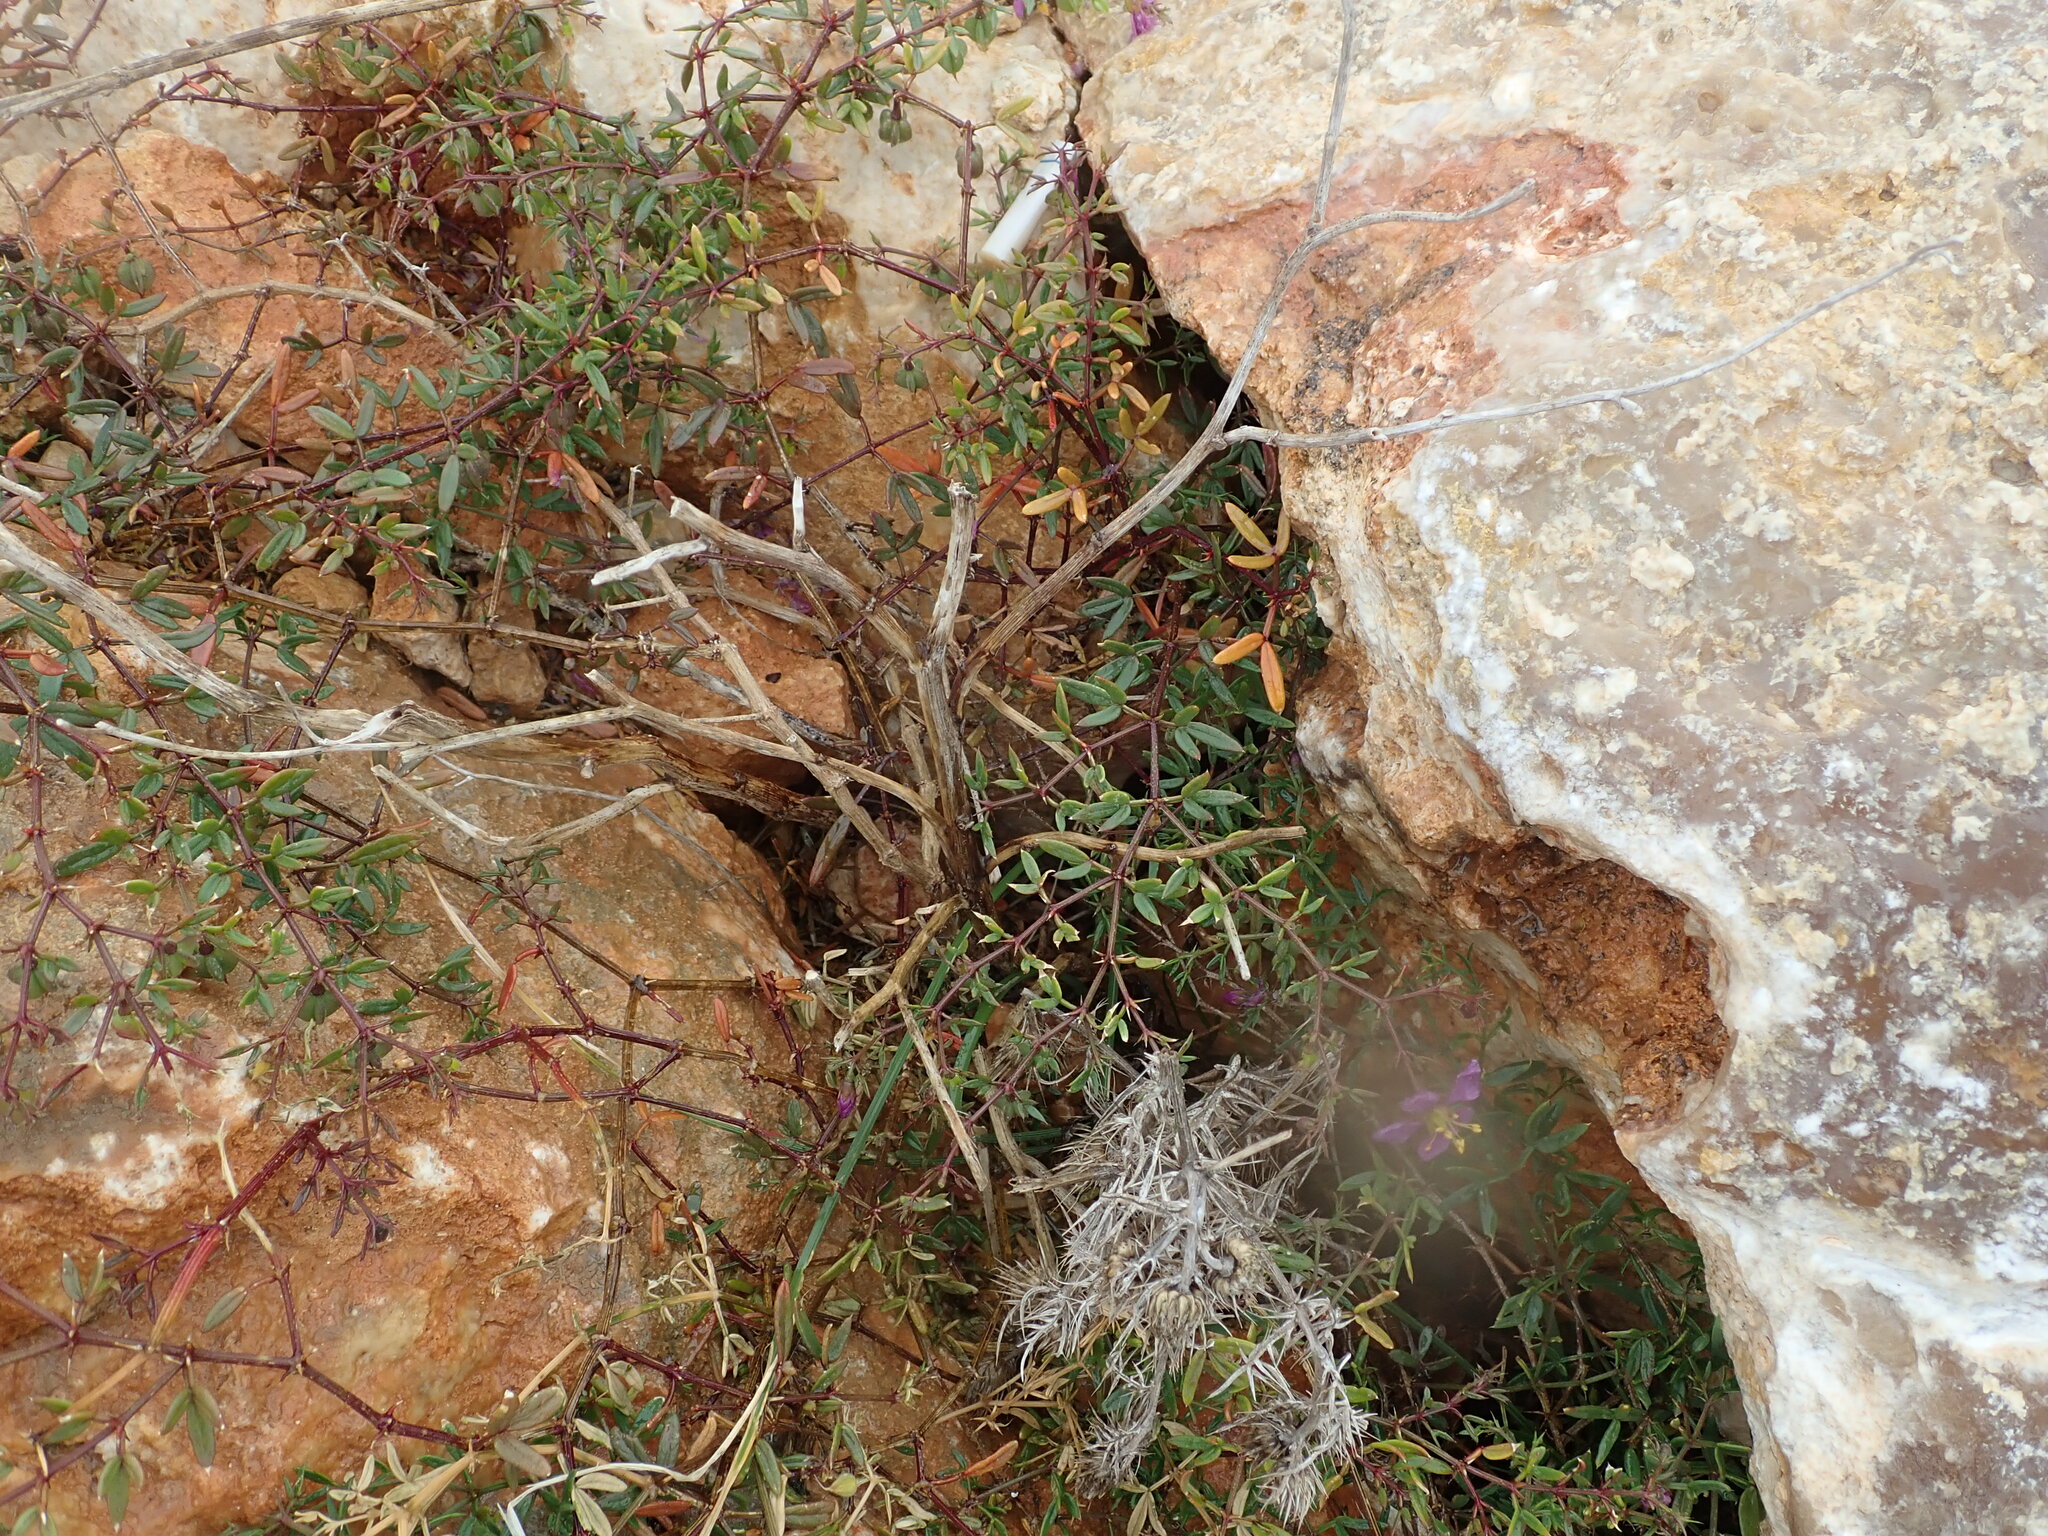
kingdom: Plantae
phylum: Tracheophyta
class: Magnoliopsida
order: Zygophyllales
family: Zygophyllaceae
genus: Fagonia
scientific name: Fagonia cretica
